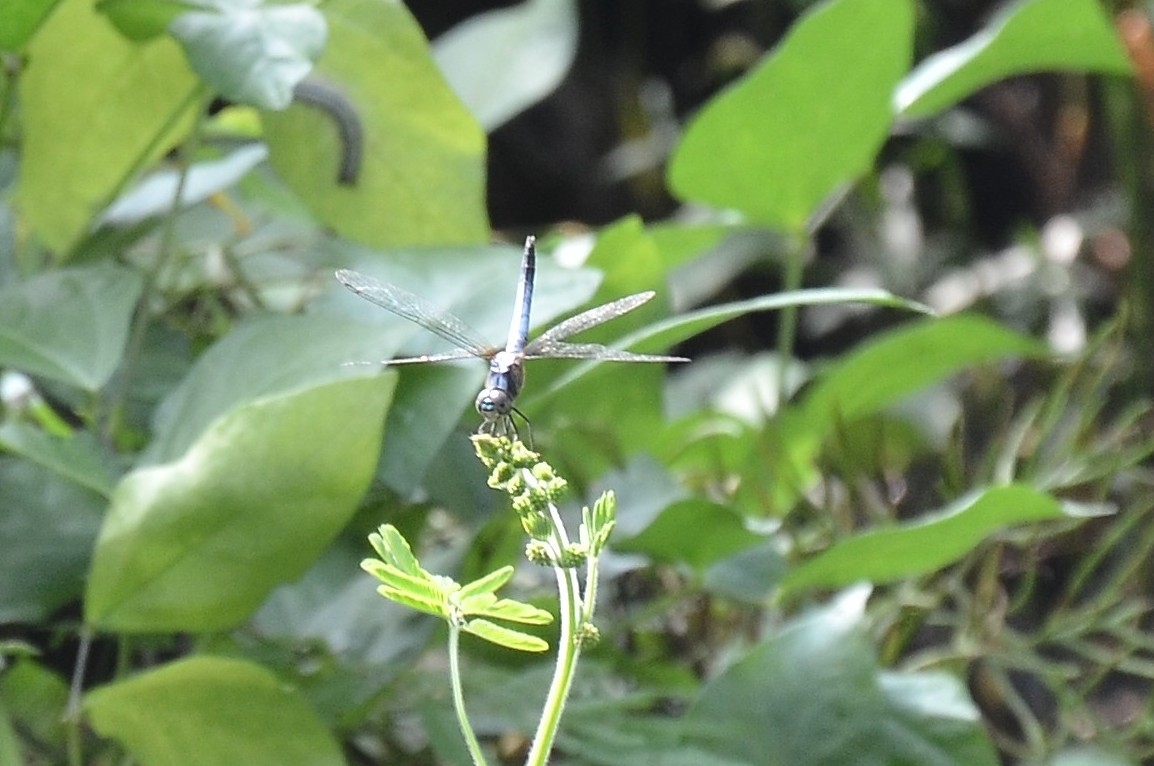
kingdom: Animalia
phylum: Arthropoda
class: Insecta
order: Odonata
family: Libellulidae
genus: Brachydiplax
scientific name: Brachydiplax chalybea
